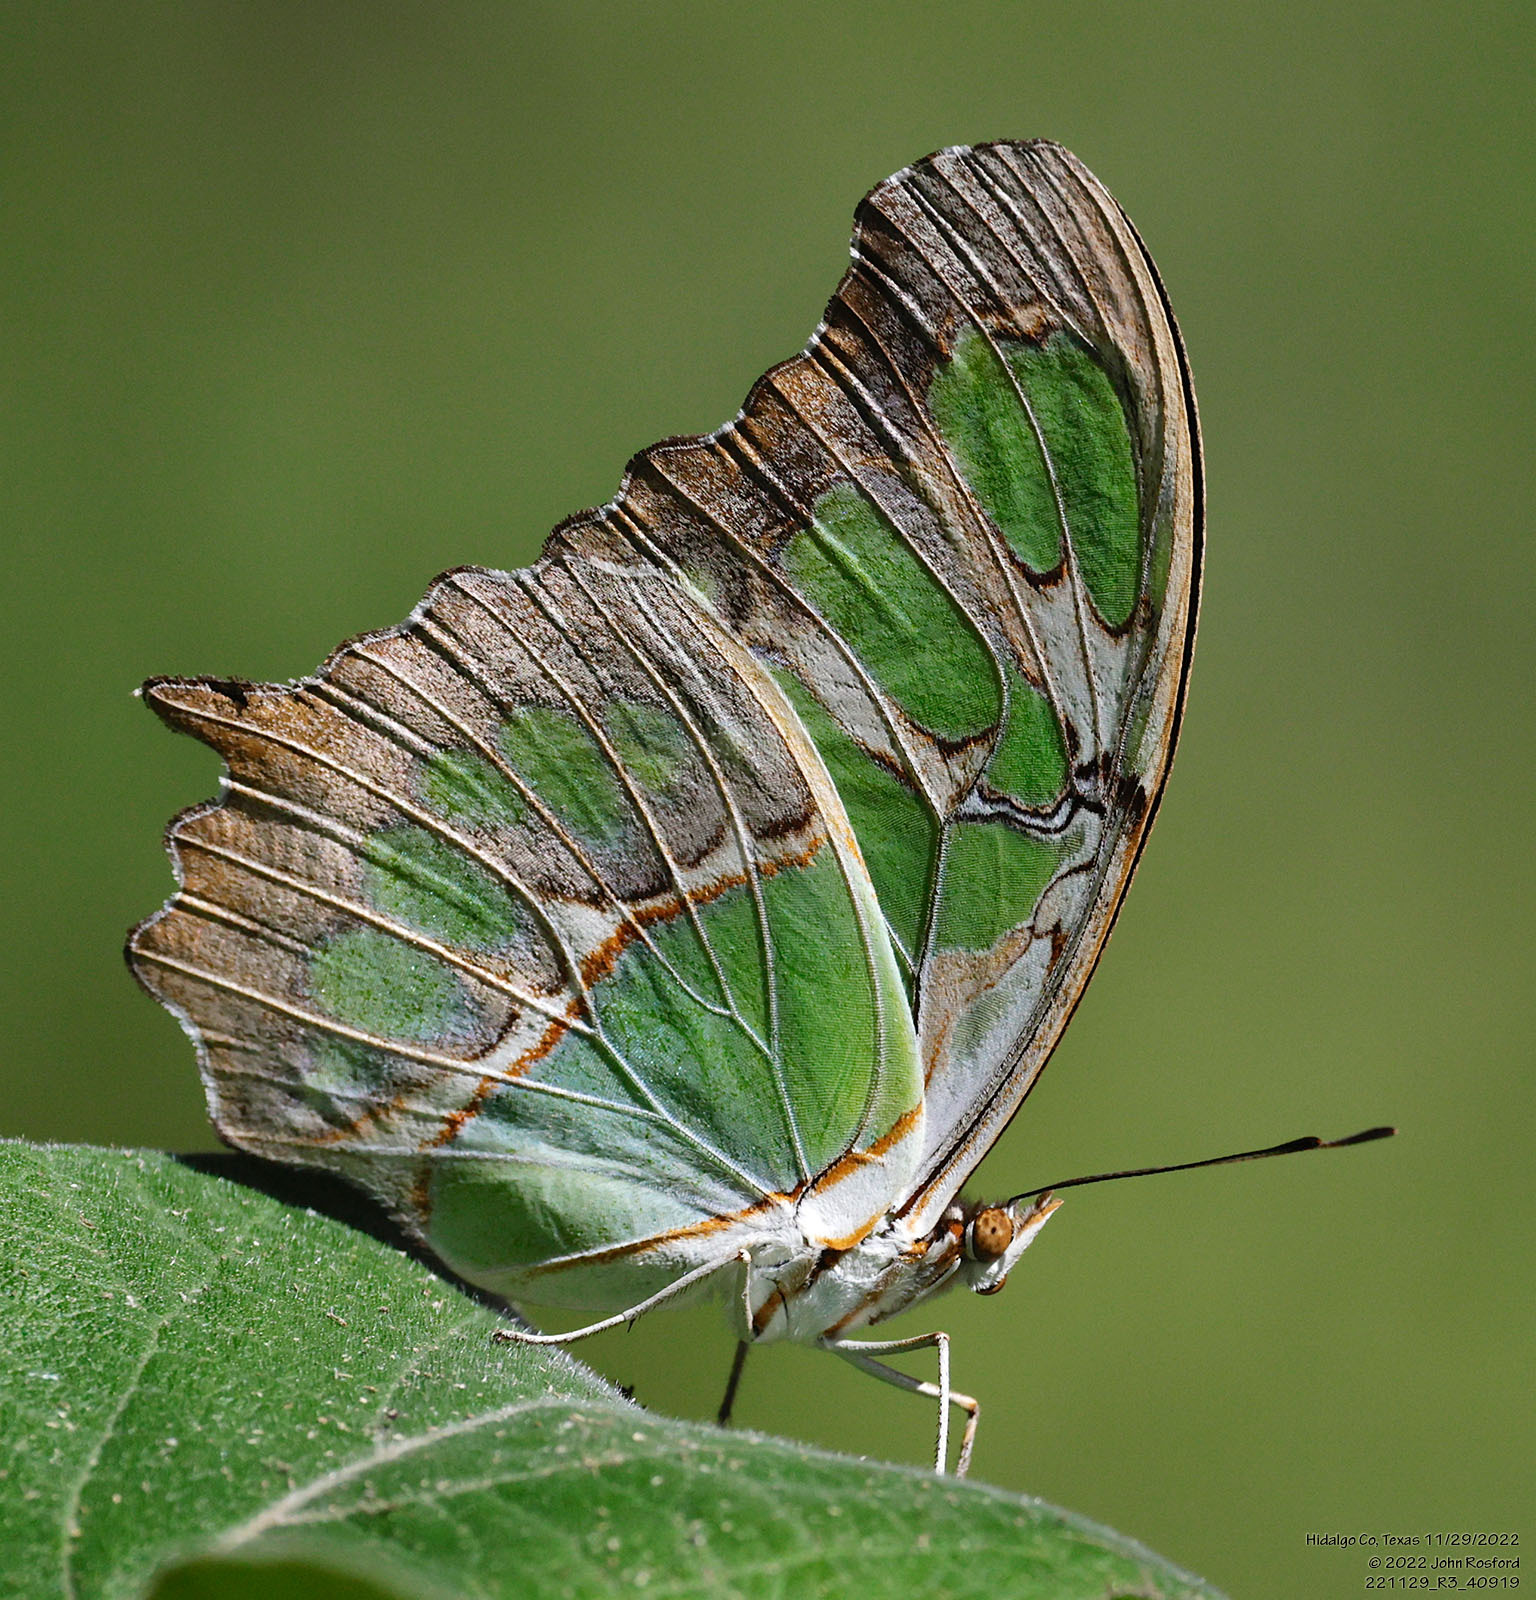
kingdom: Animalia
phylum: Arthropoda
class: Insecta
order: Lepidoptera
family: Nymphalidae
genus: Siproeta
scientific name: Siproeta stelenes
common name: Malachite
